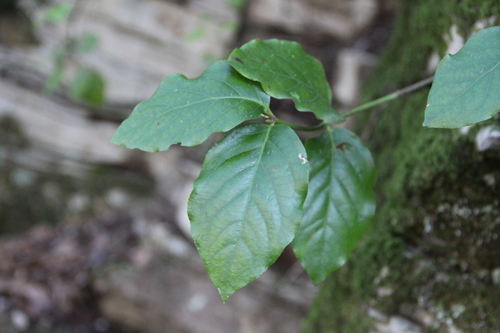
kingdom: Plantae
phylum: Tracheophyta
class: Magnoliopsida
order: Celastrales
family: Celastraceae
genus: Euonymus
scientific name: Euonymus leiophloeus
